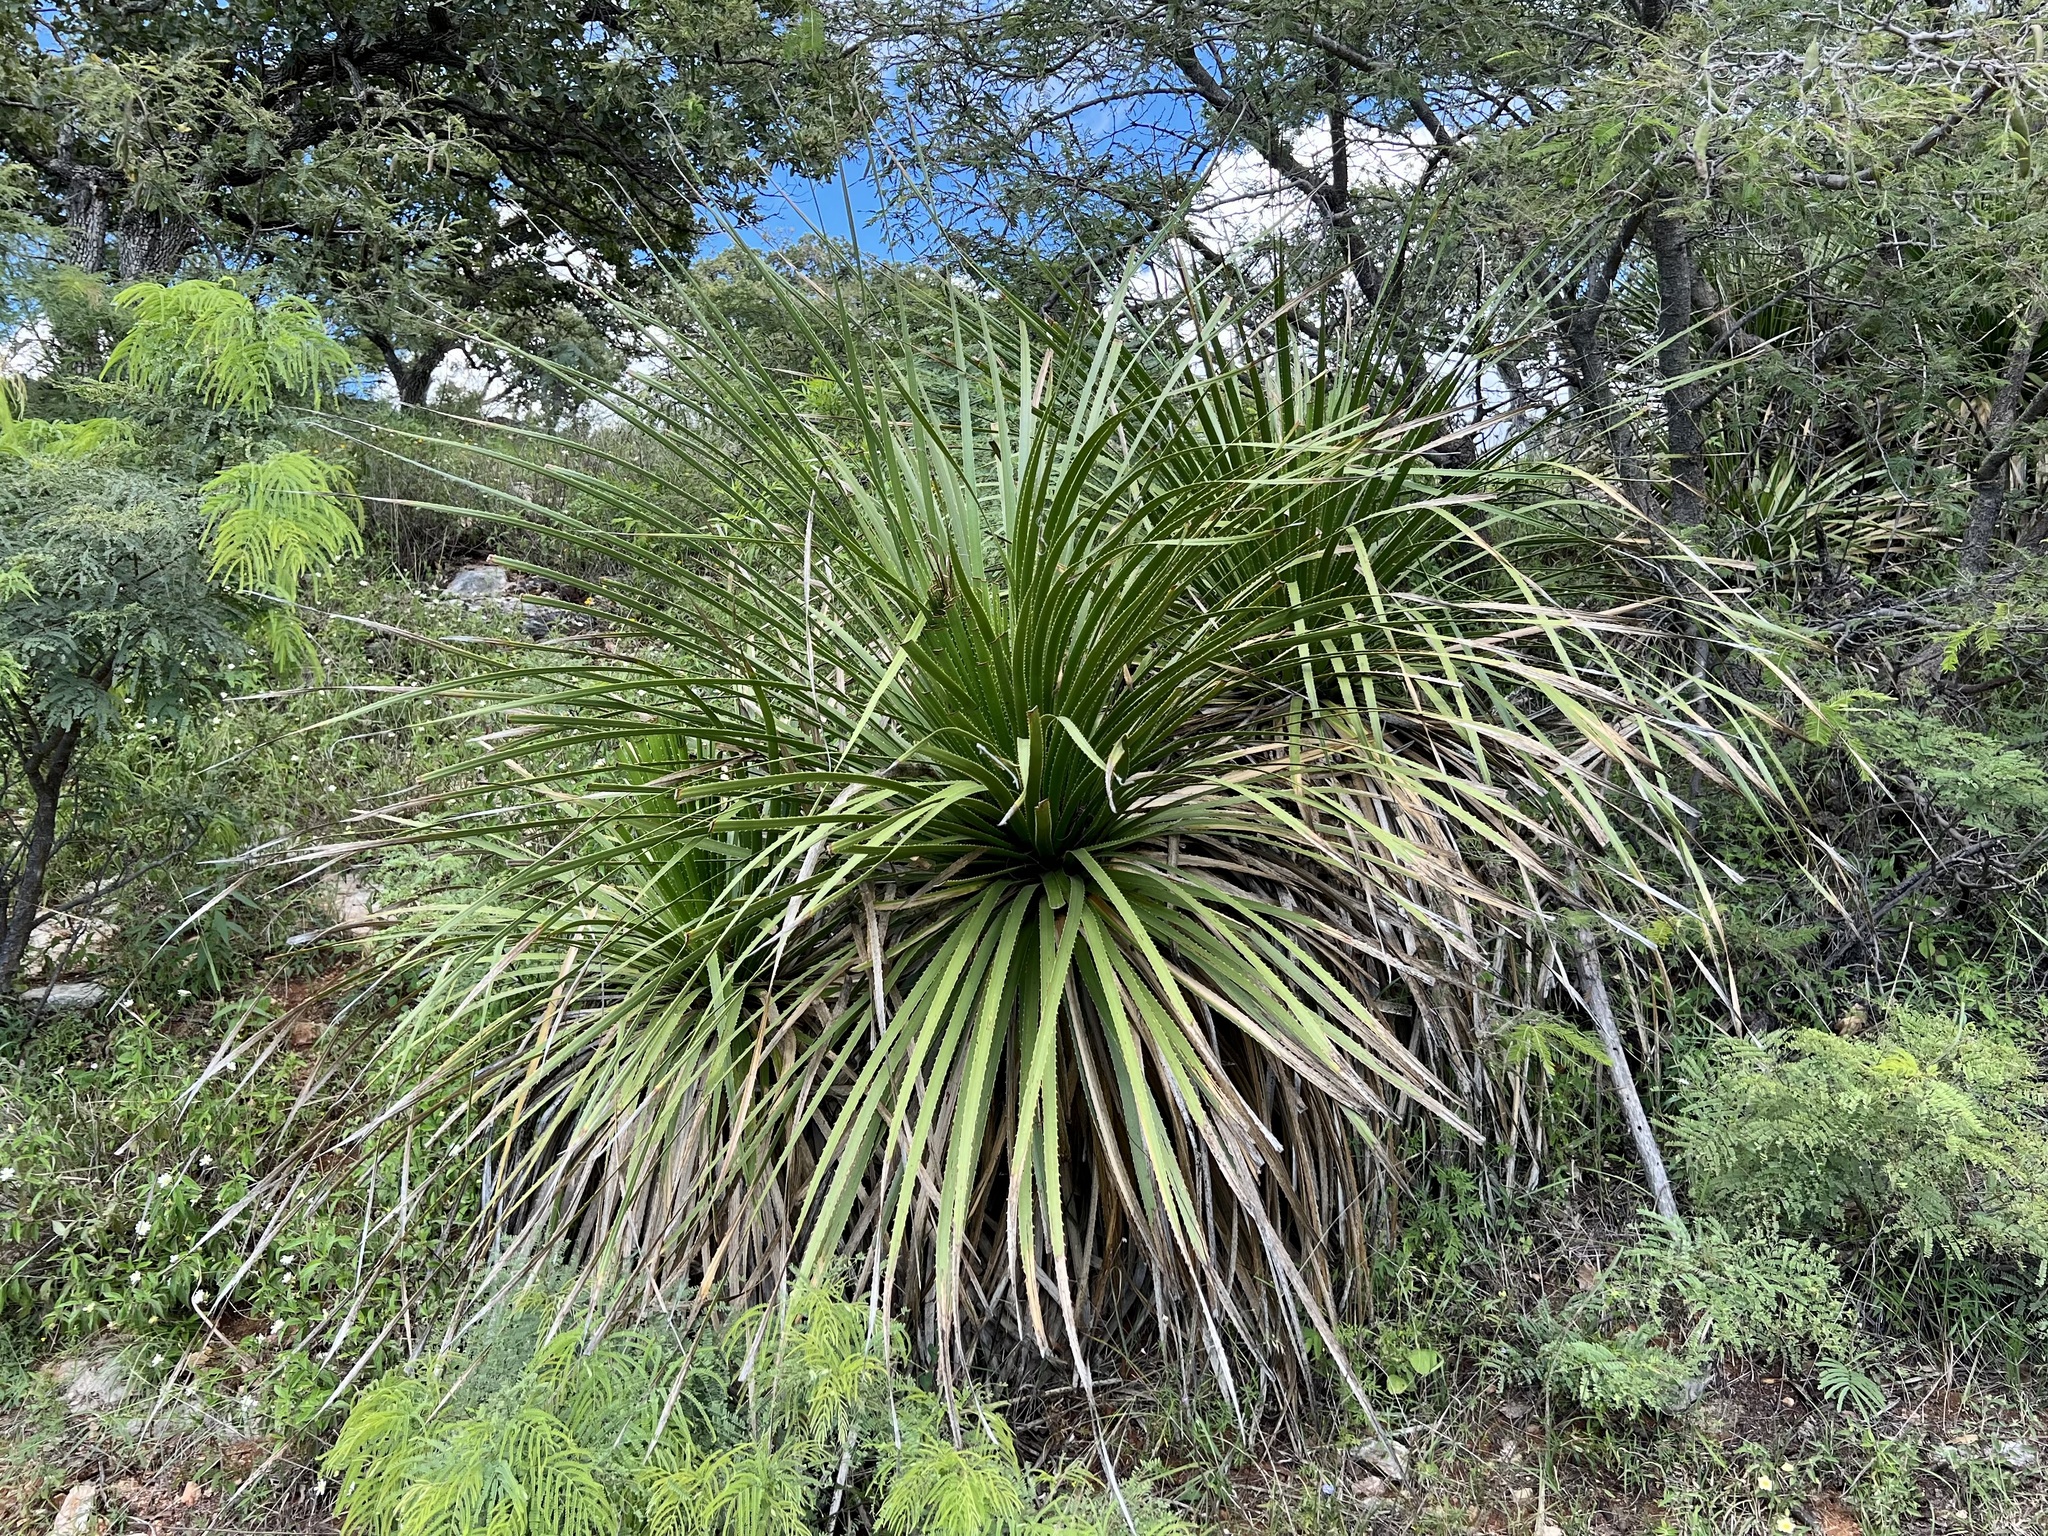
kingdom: Plantae
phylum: Tracheophyta
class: Liliopsida
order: Asparagales
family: Asparagaceae
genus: Dasylirion
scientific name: Dasylirion gentryi
